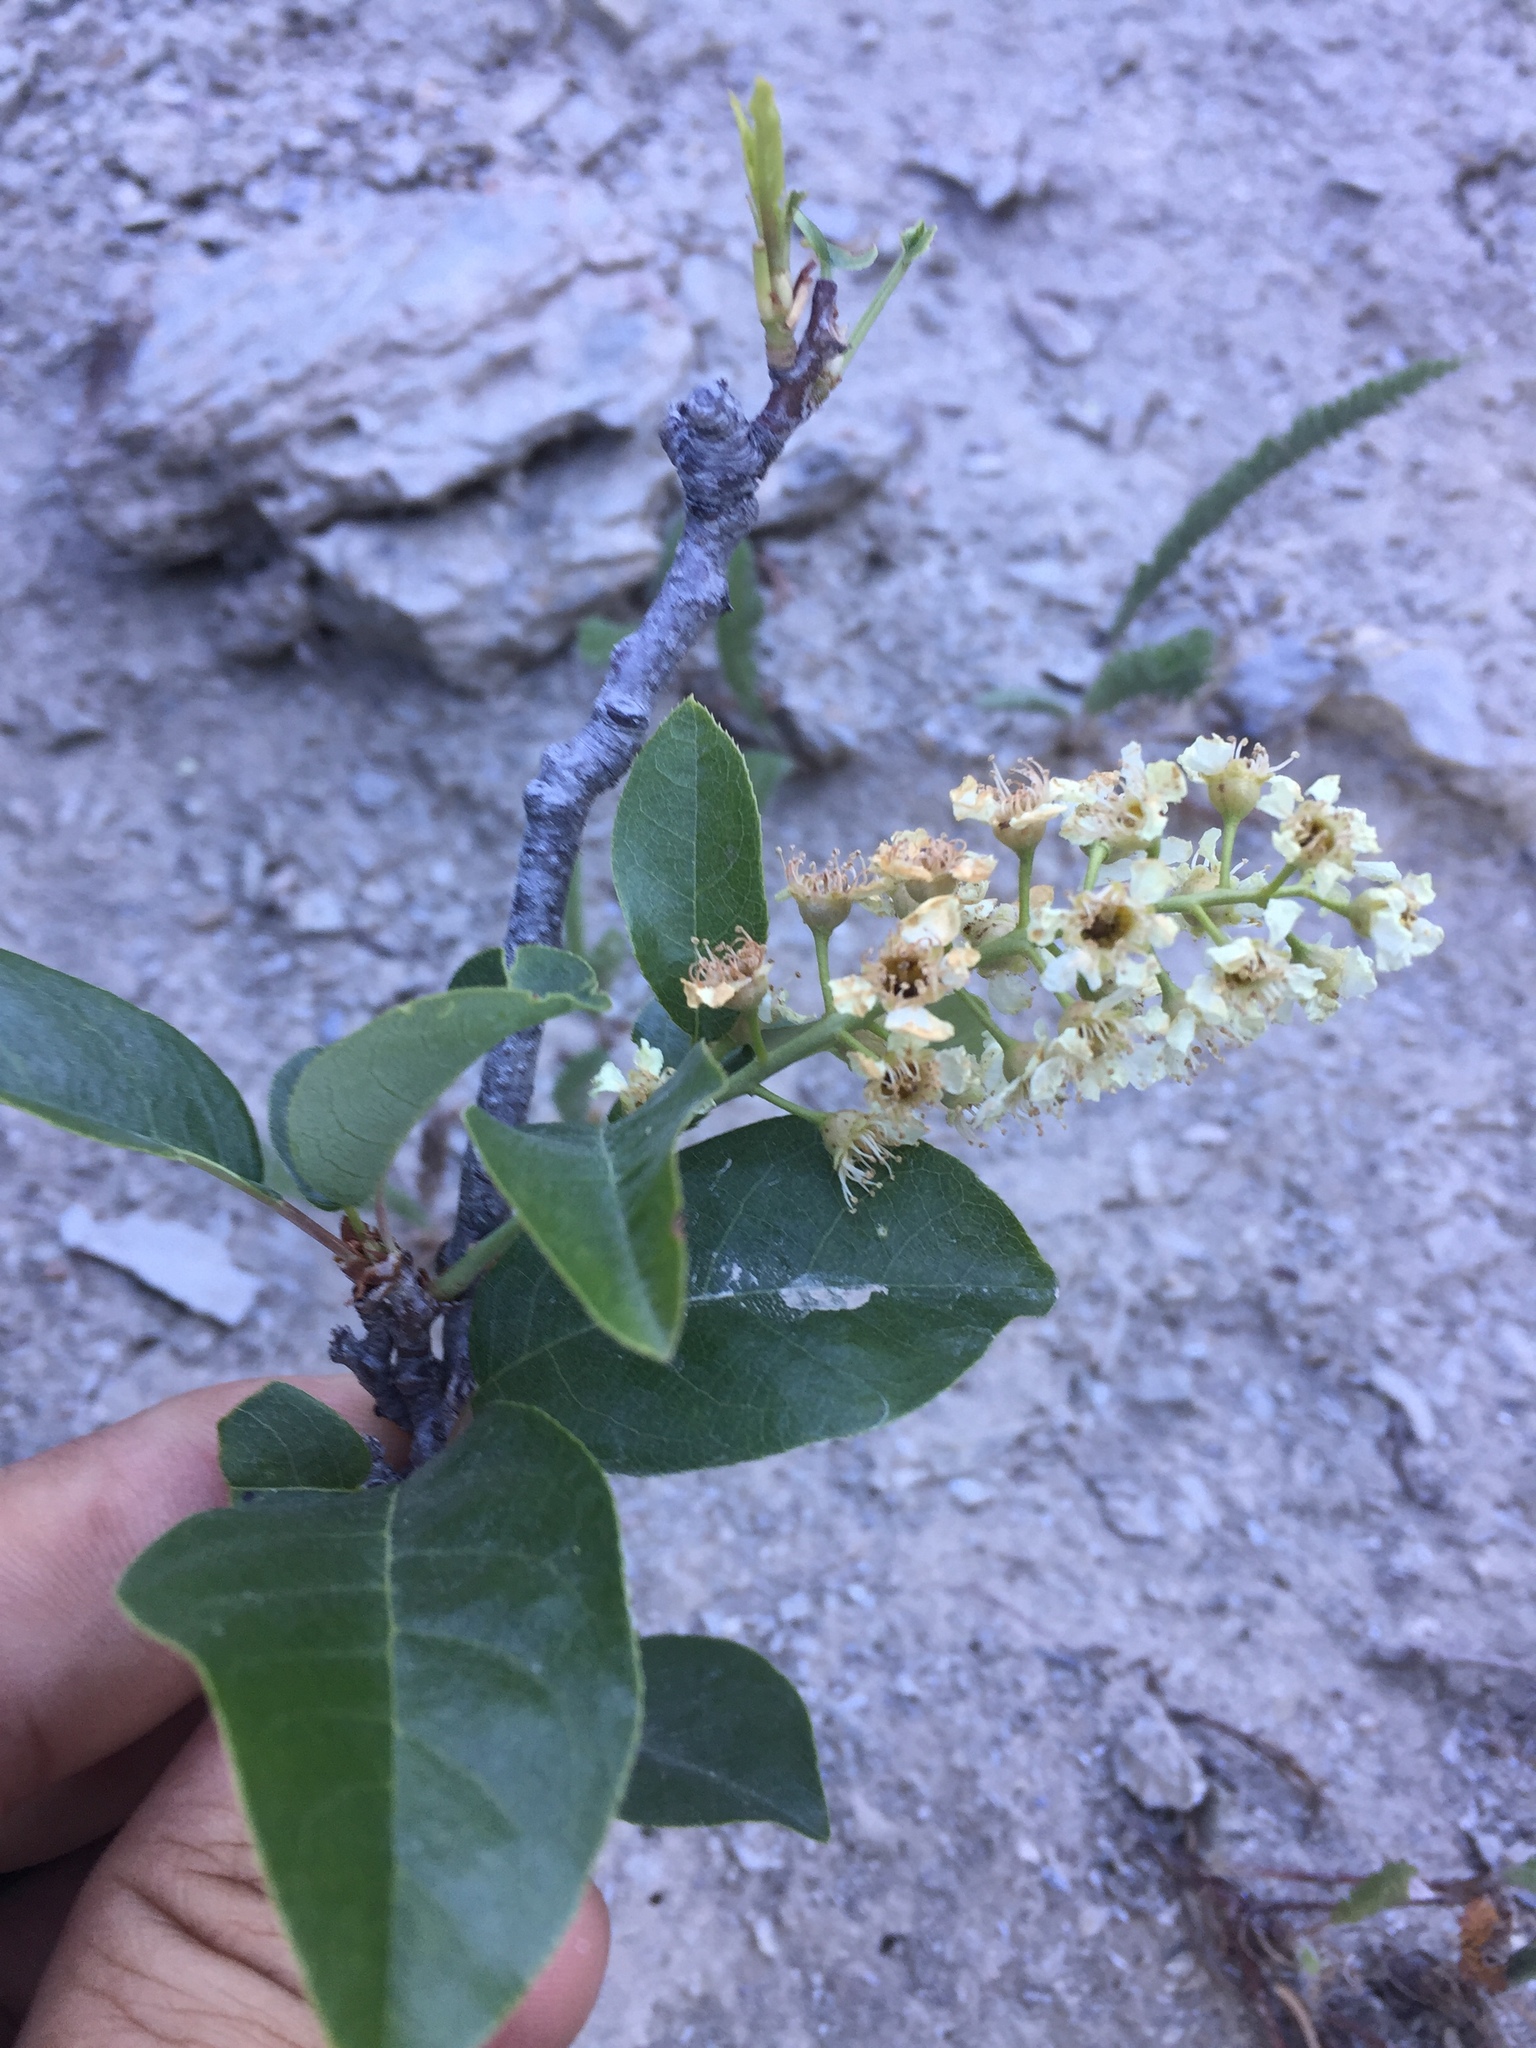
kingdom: Plantae
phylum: Tracheophyta
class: Magnoliopsida
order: Rosales
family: Rosaceae
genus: Prunus
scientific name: Prunus virginiana
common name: Chokecherry
